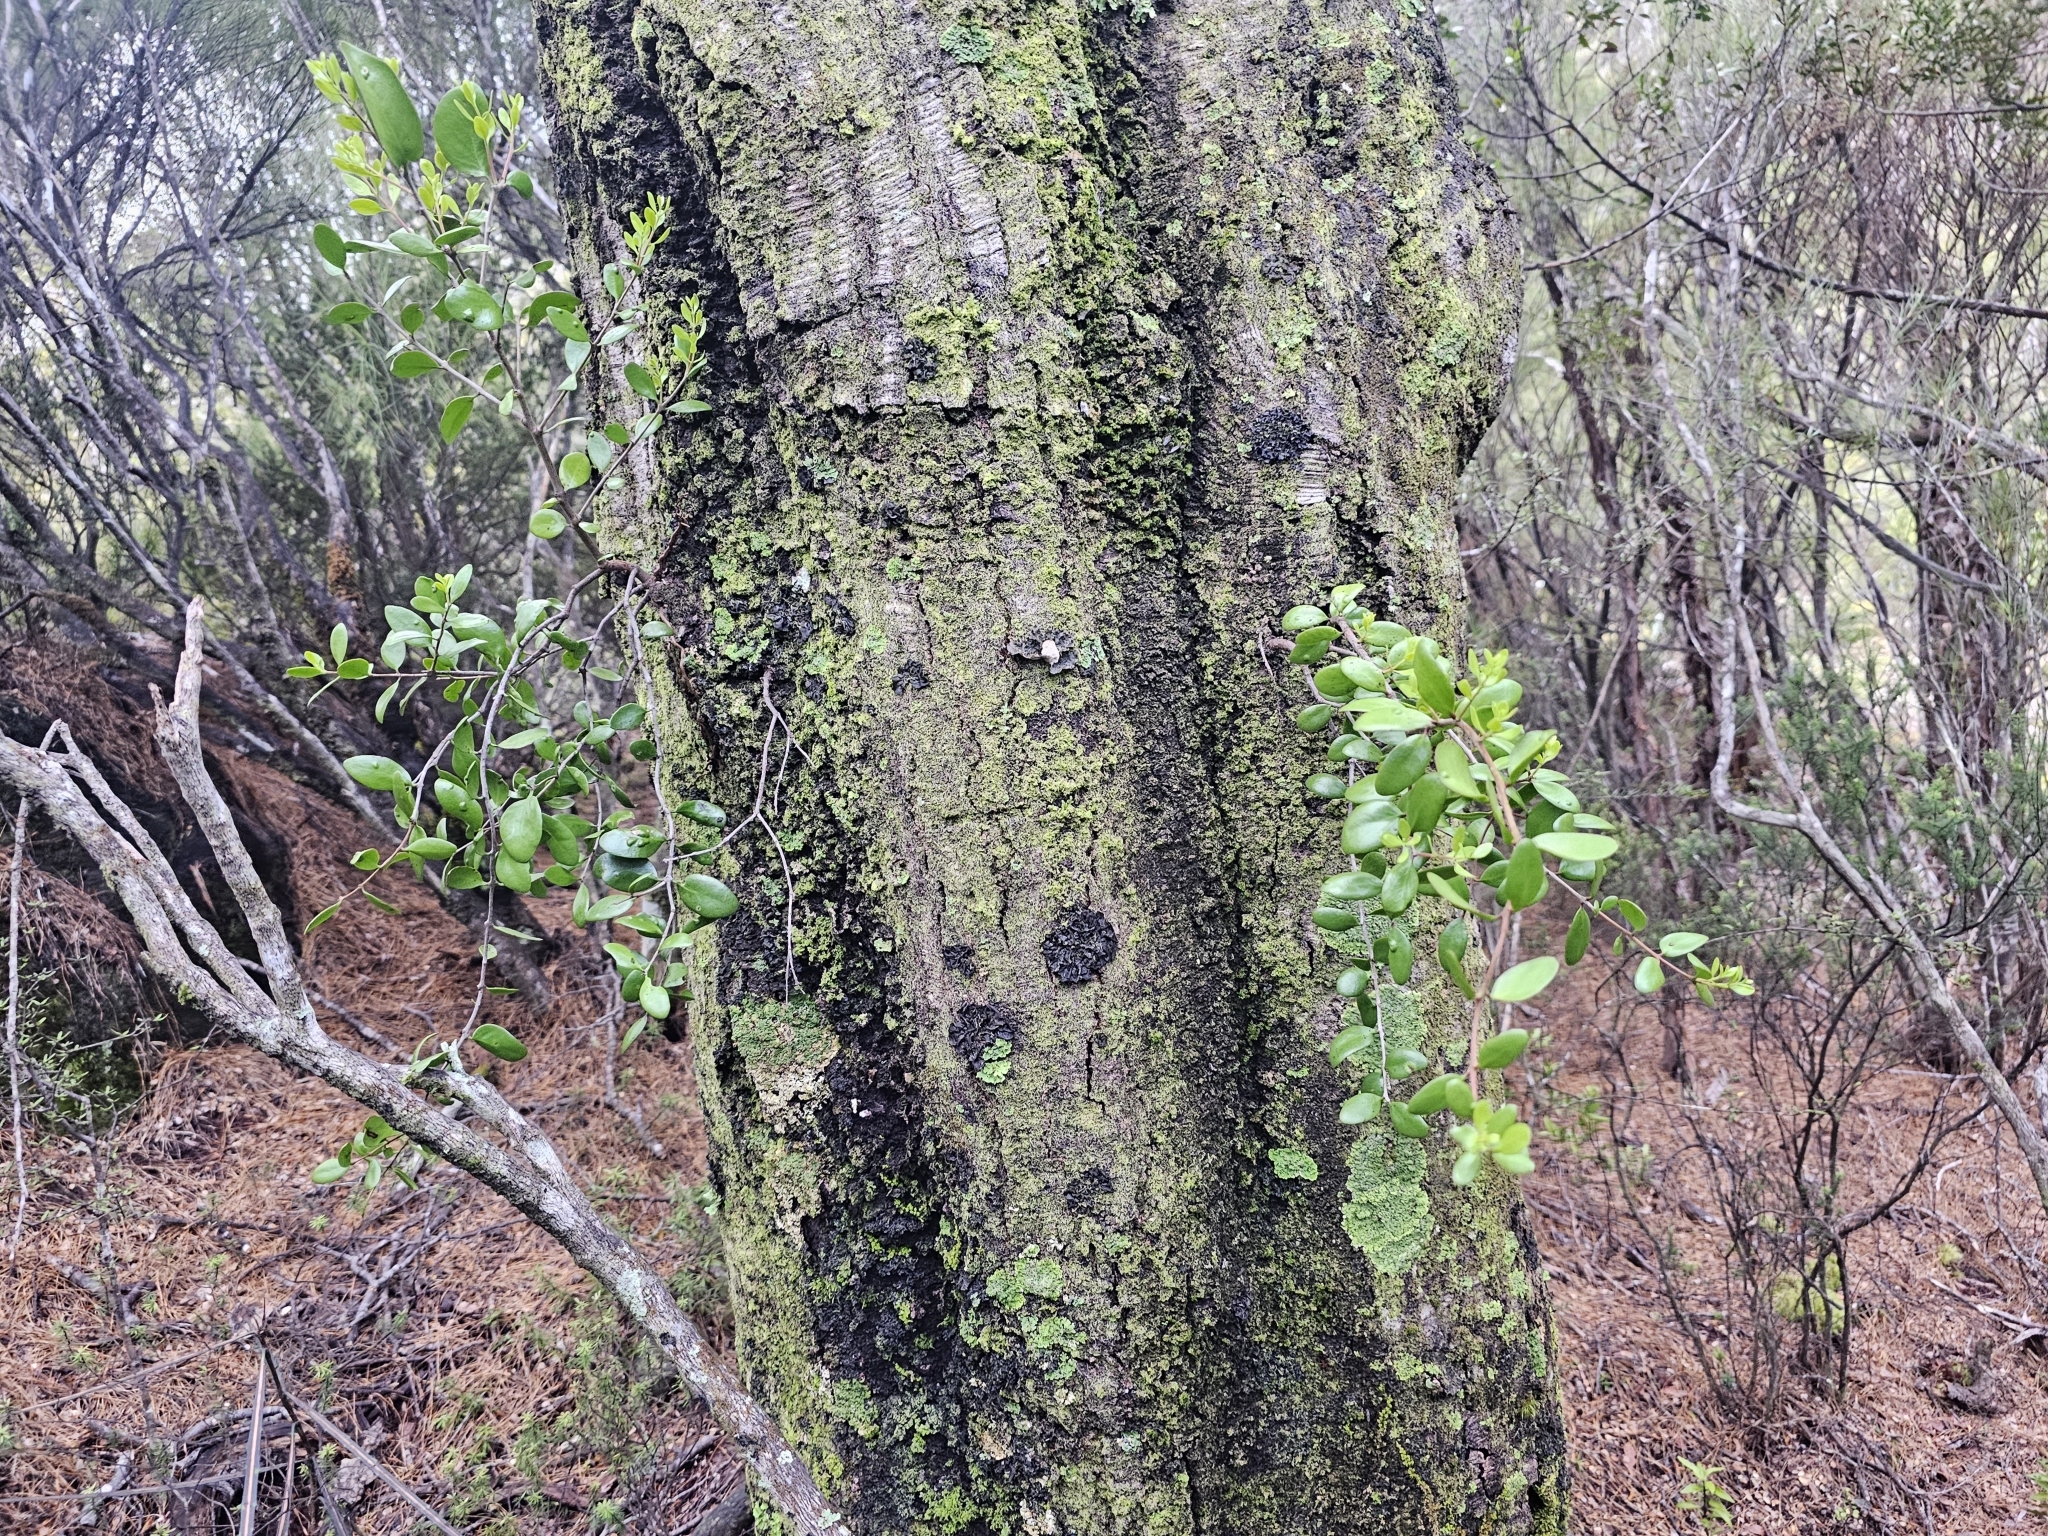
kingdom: Plantae
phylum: Tracheophyta
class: Magnoliopsida
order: Santalales
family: Loranthaceae
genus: Peraxilla
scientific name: Peraxilla tetrapetala
